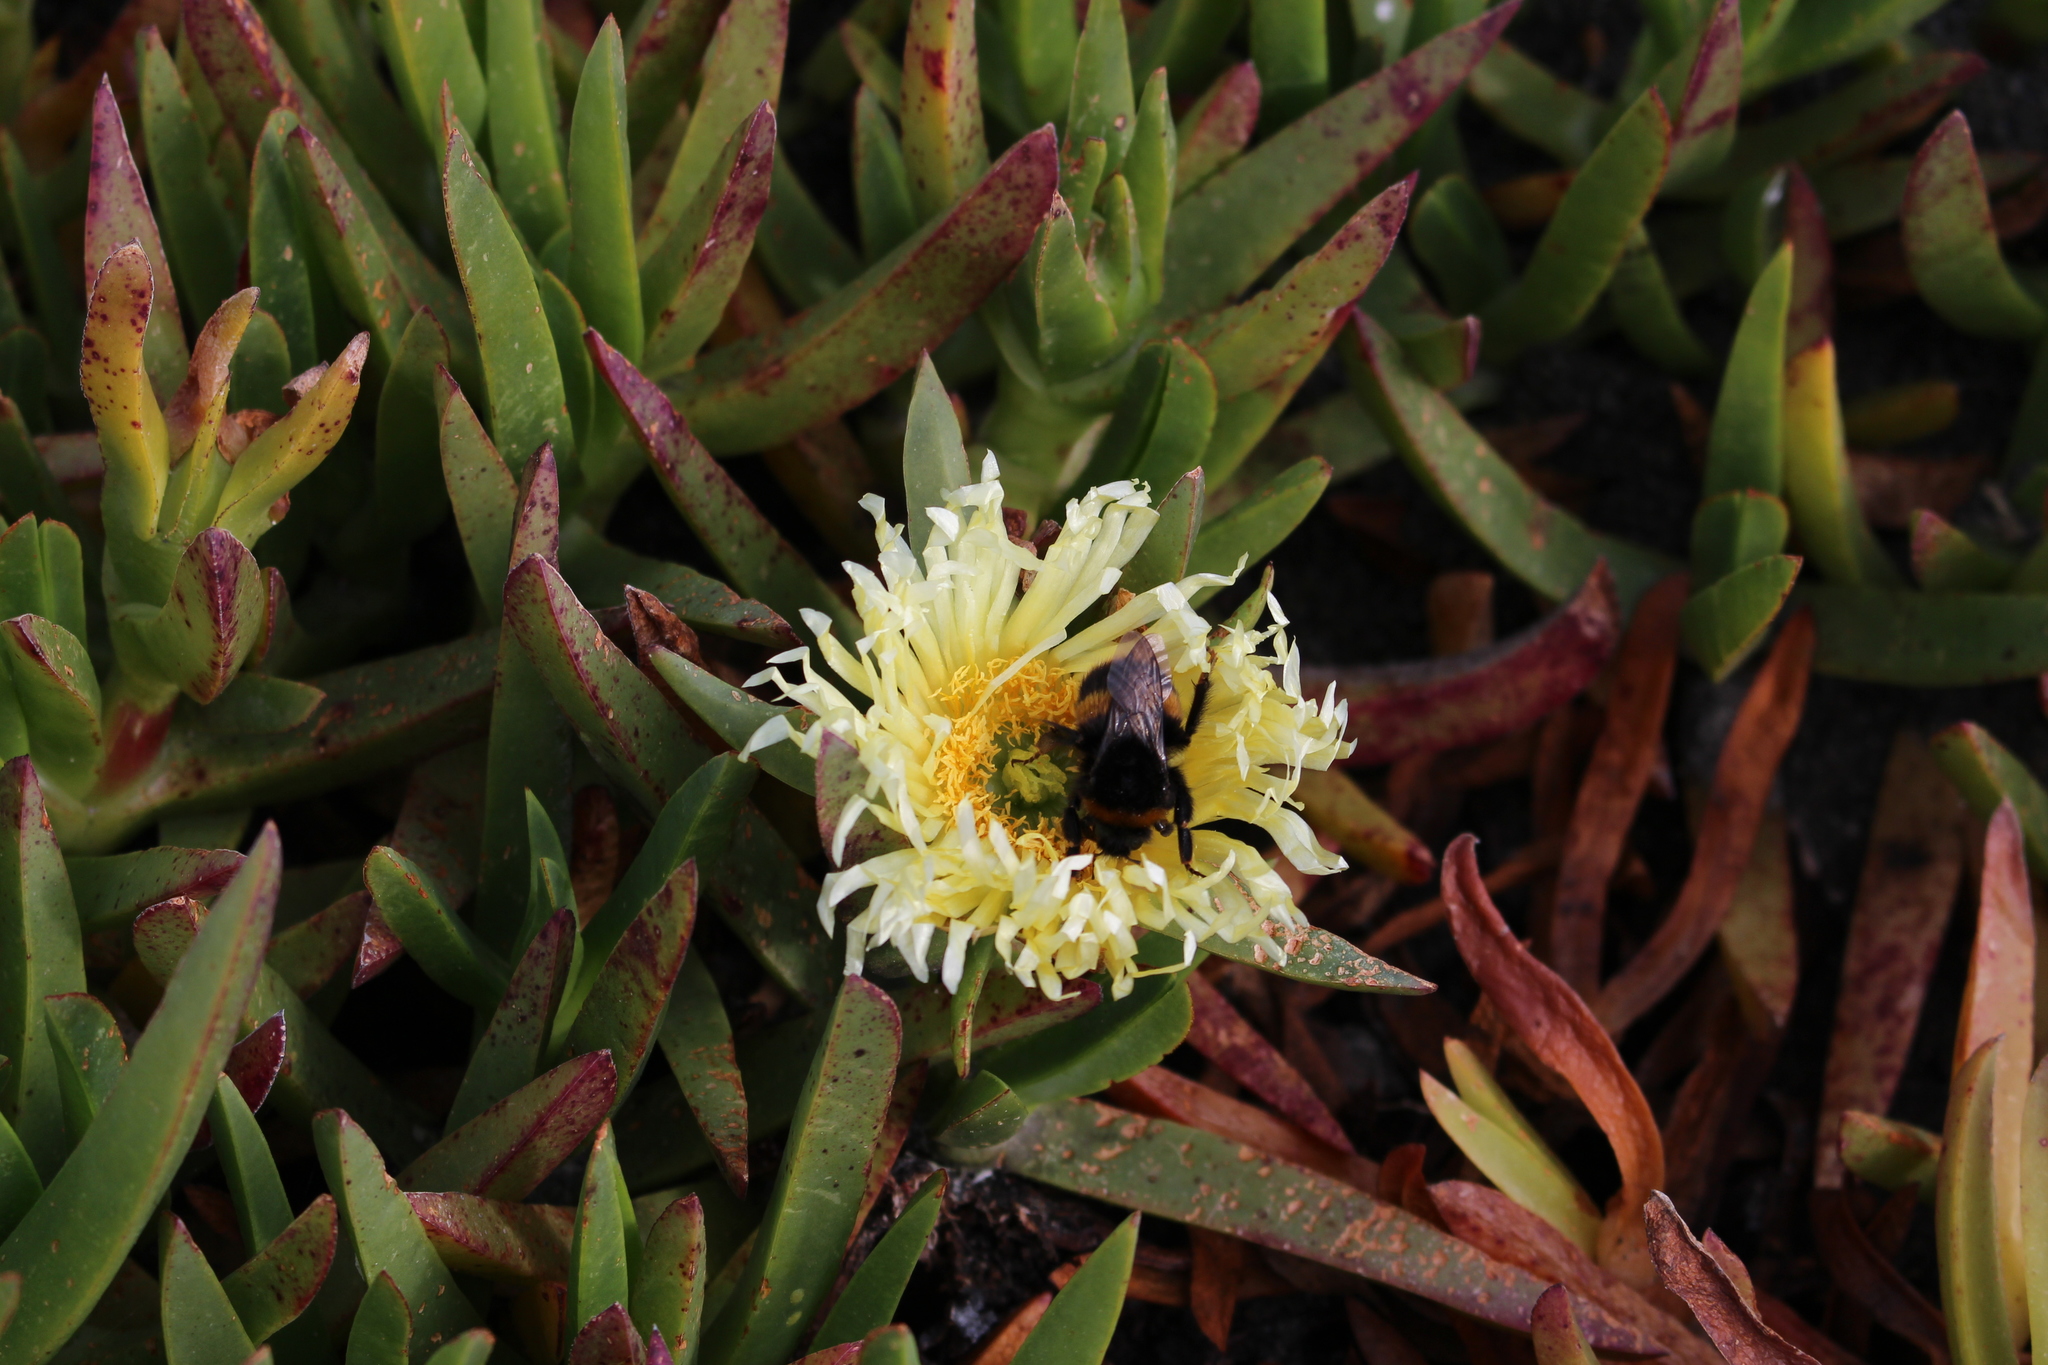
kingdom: Plantae
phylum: Tracheophyta
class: Magnoliopsida
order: Caryophyllales
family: Aizoaceae
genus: Carpobrotus
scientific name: Carpobrotus edulis
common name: Hottentot-fig
